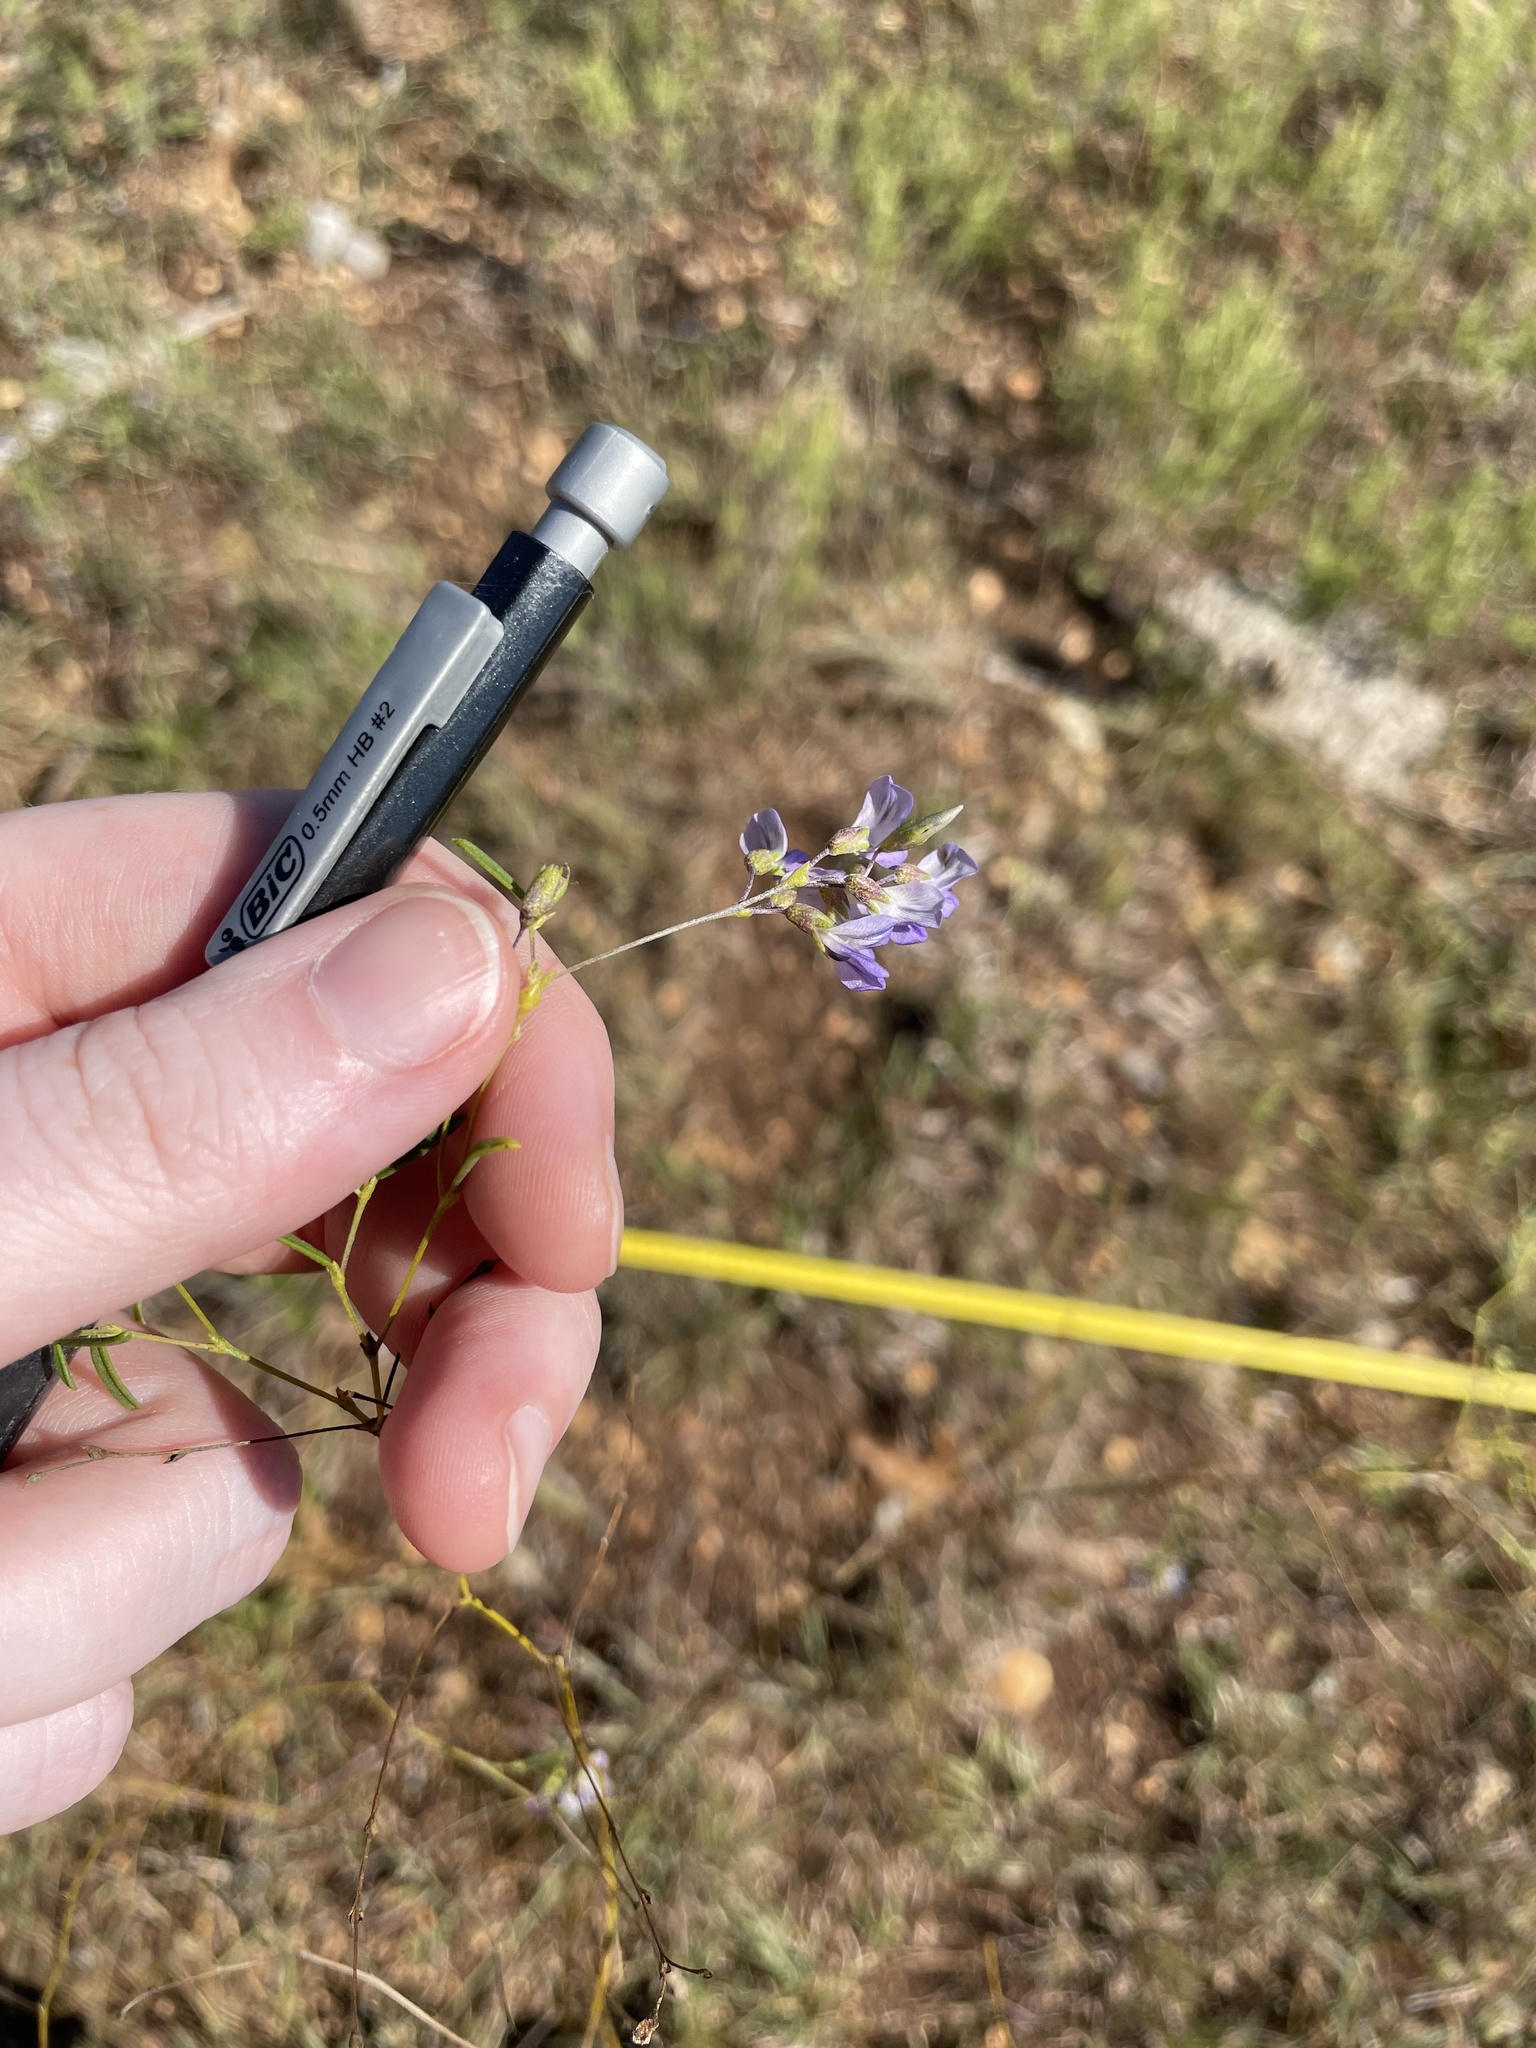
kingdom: Plantae
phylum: Tracheophyta
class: Magnoliopsida
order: Fabales
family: Fabaceae
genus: Pediomelum
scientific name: Pediomelum linearifolium
